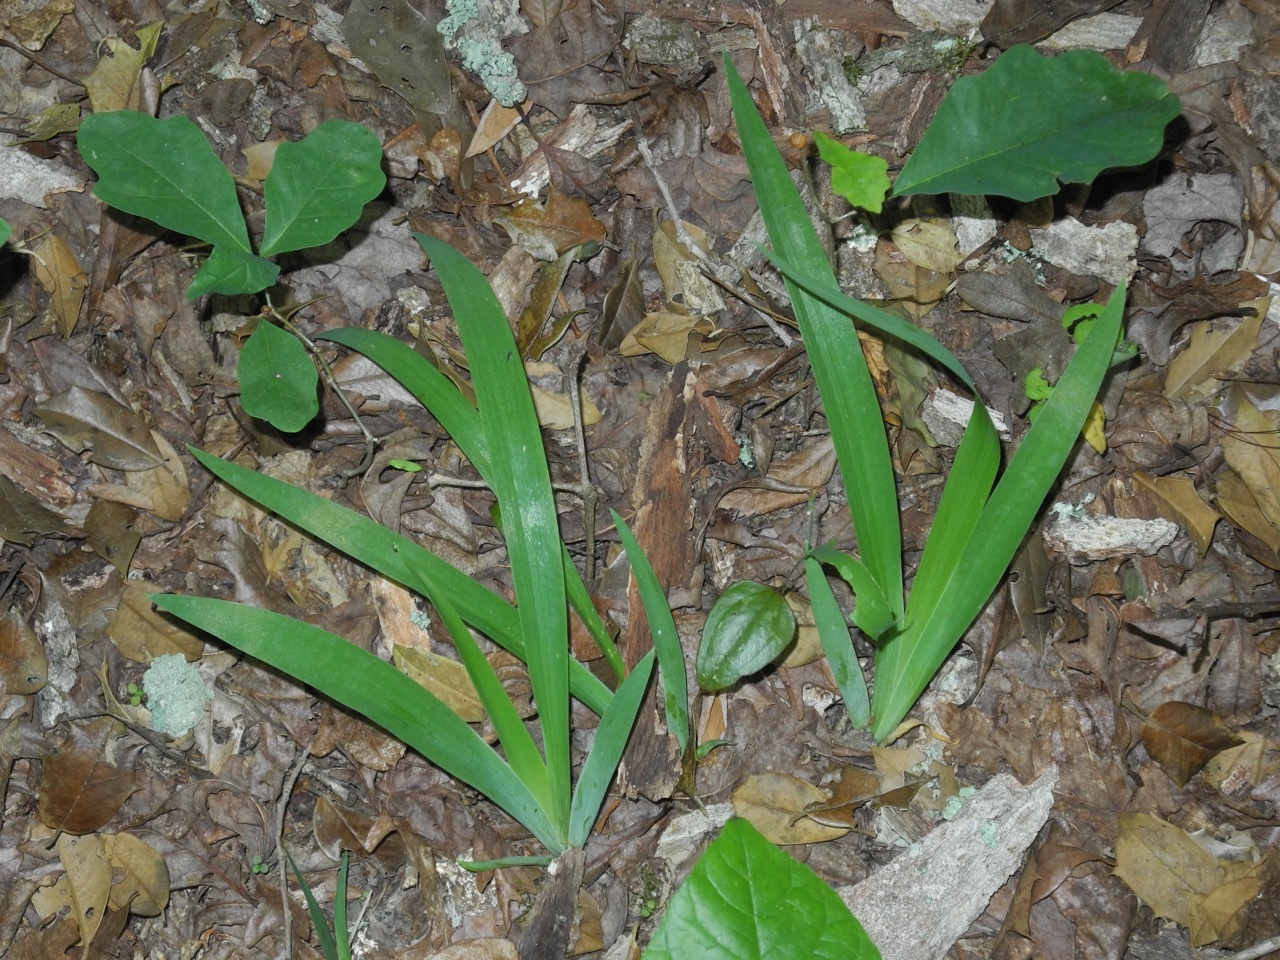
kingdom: Plantae
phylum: Tracheophyta
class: Liliopsida
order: Asparagales
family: Iridaceae
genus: Iris
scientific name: Iris cristata
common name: Crested iris
